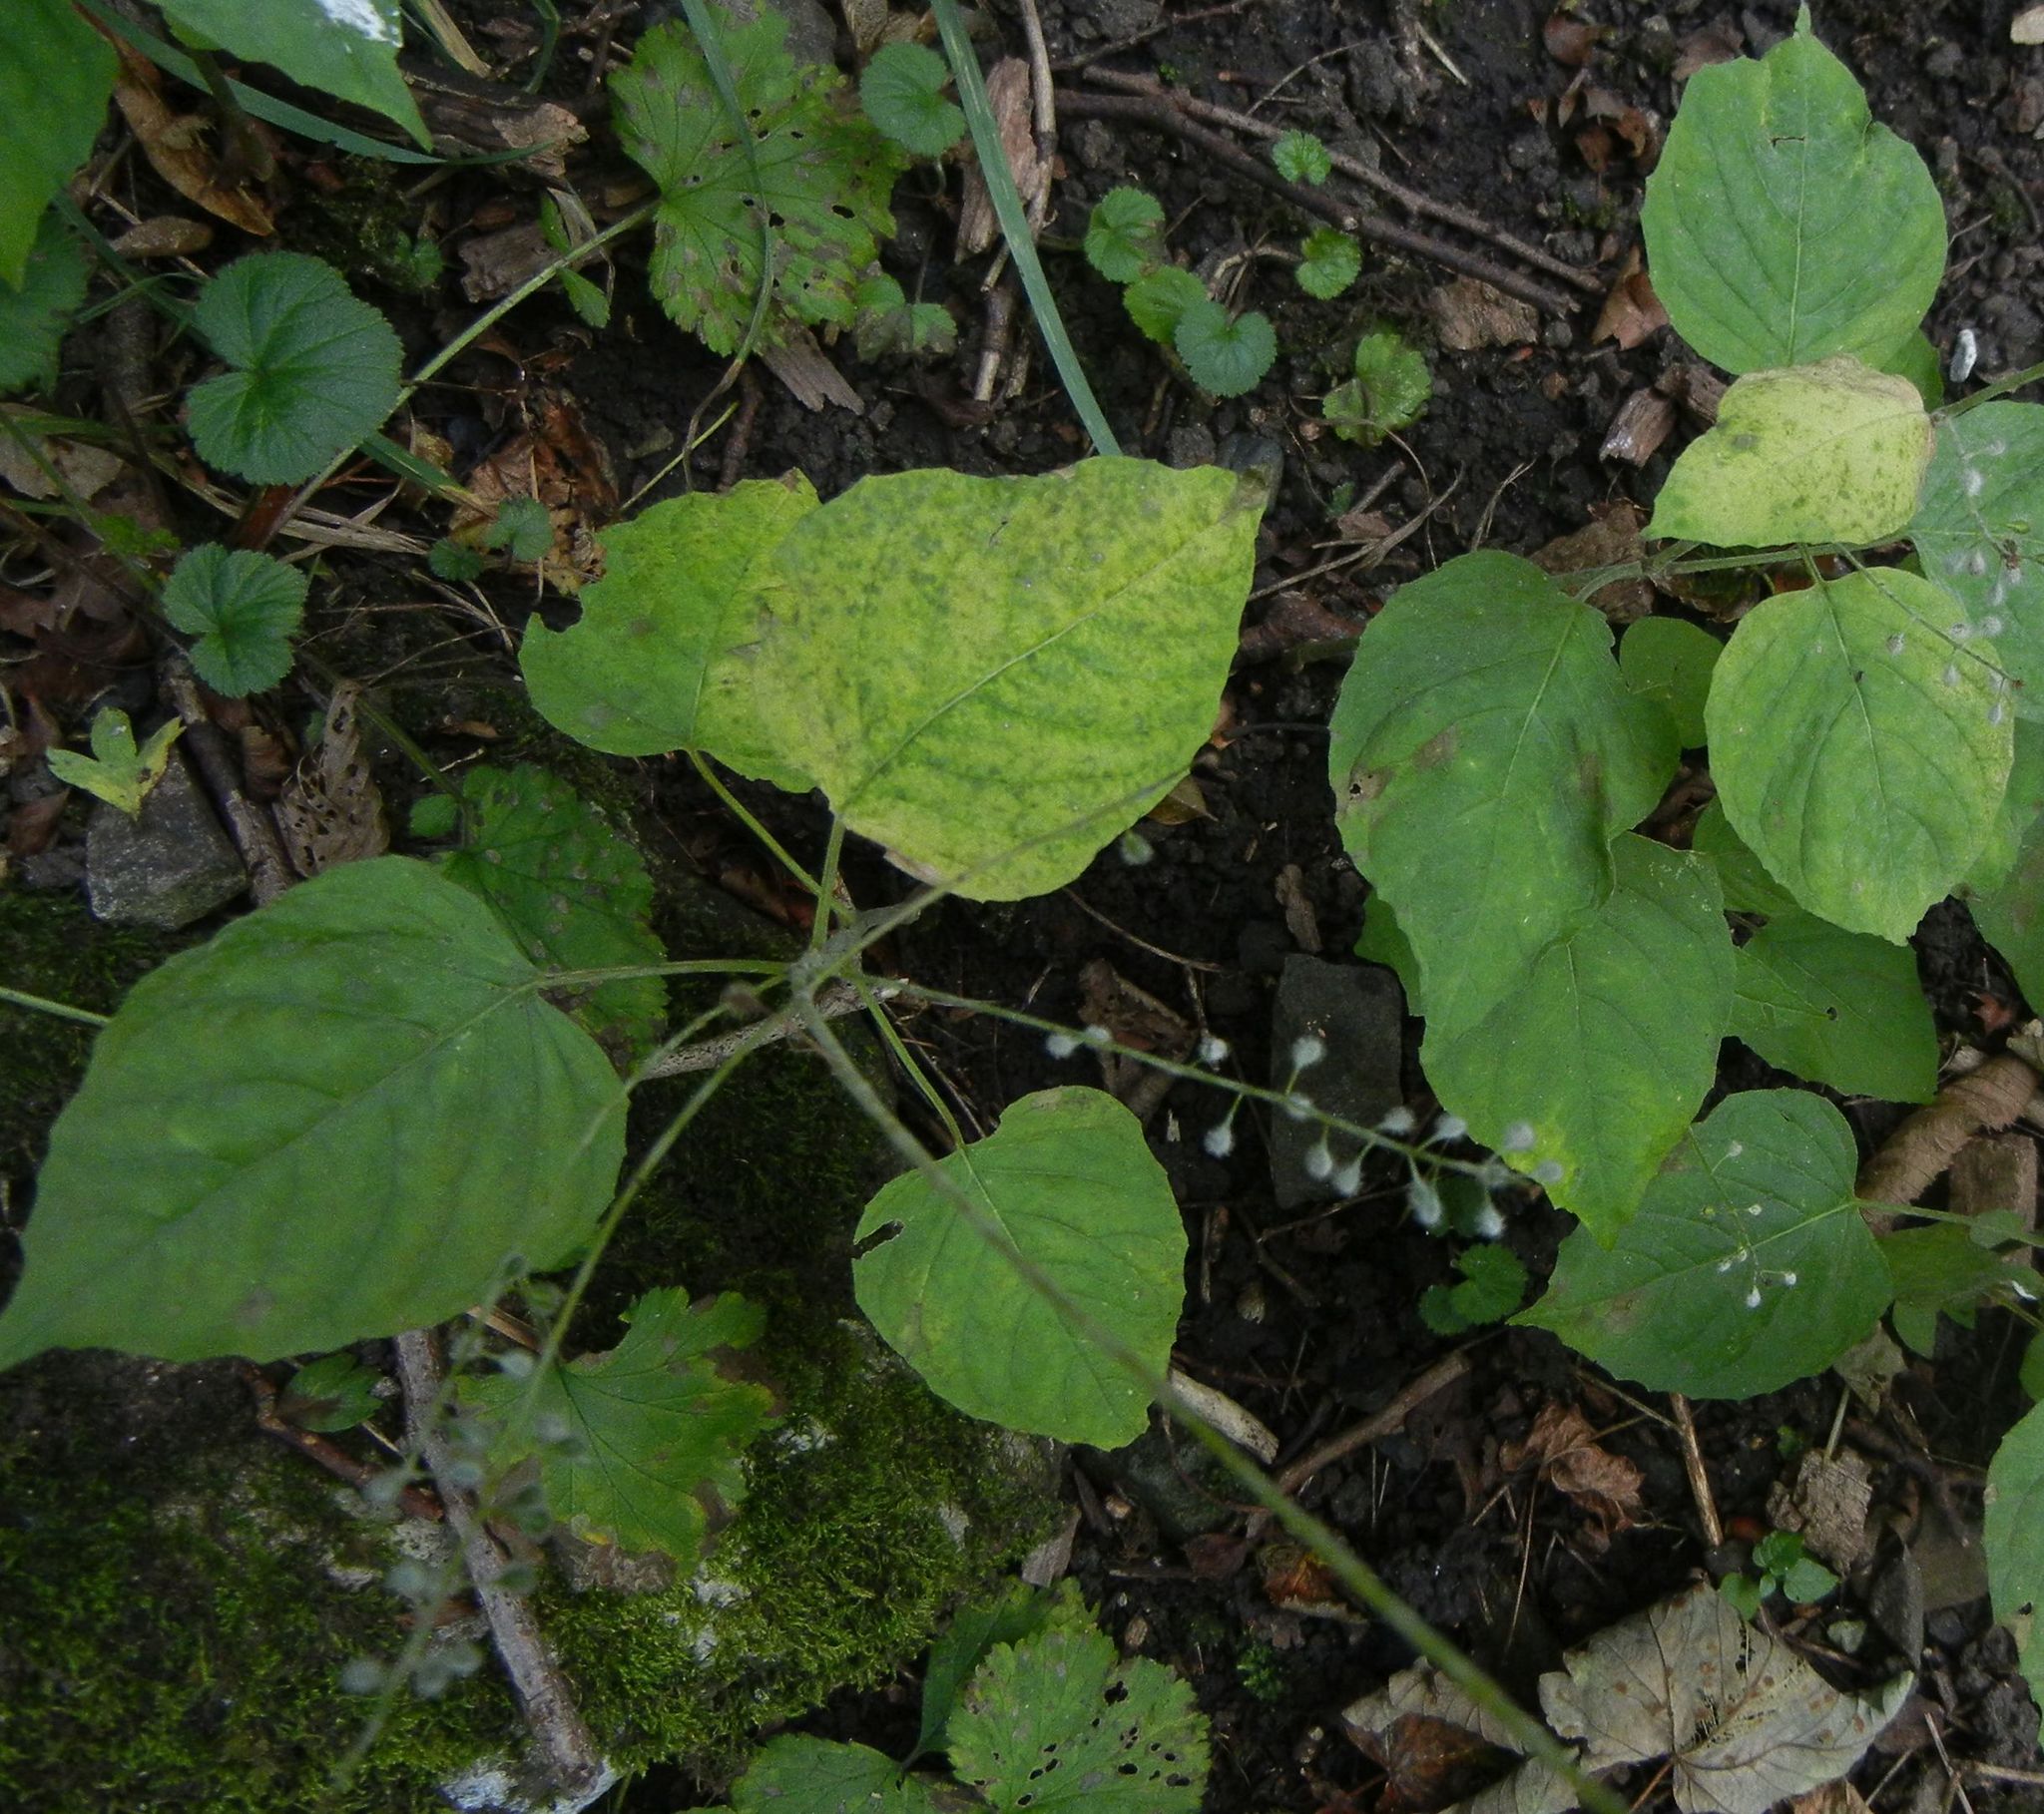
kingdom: Plantae
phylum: Tracheophyta
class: Magnoliopsida
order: Myrtales
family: Onagraceae
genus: Circaea
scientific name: Circaea lutetiana
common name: Enchanter's-nightshade
